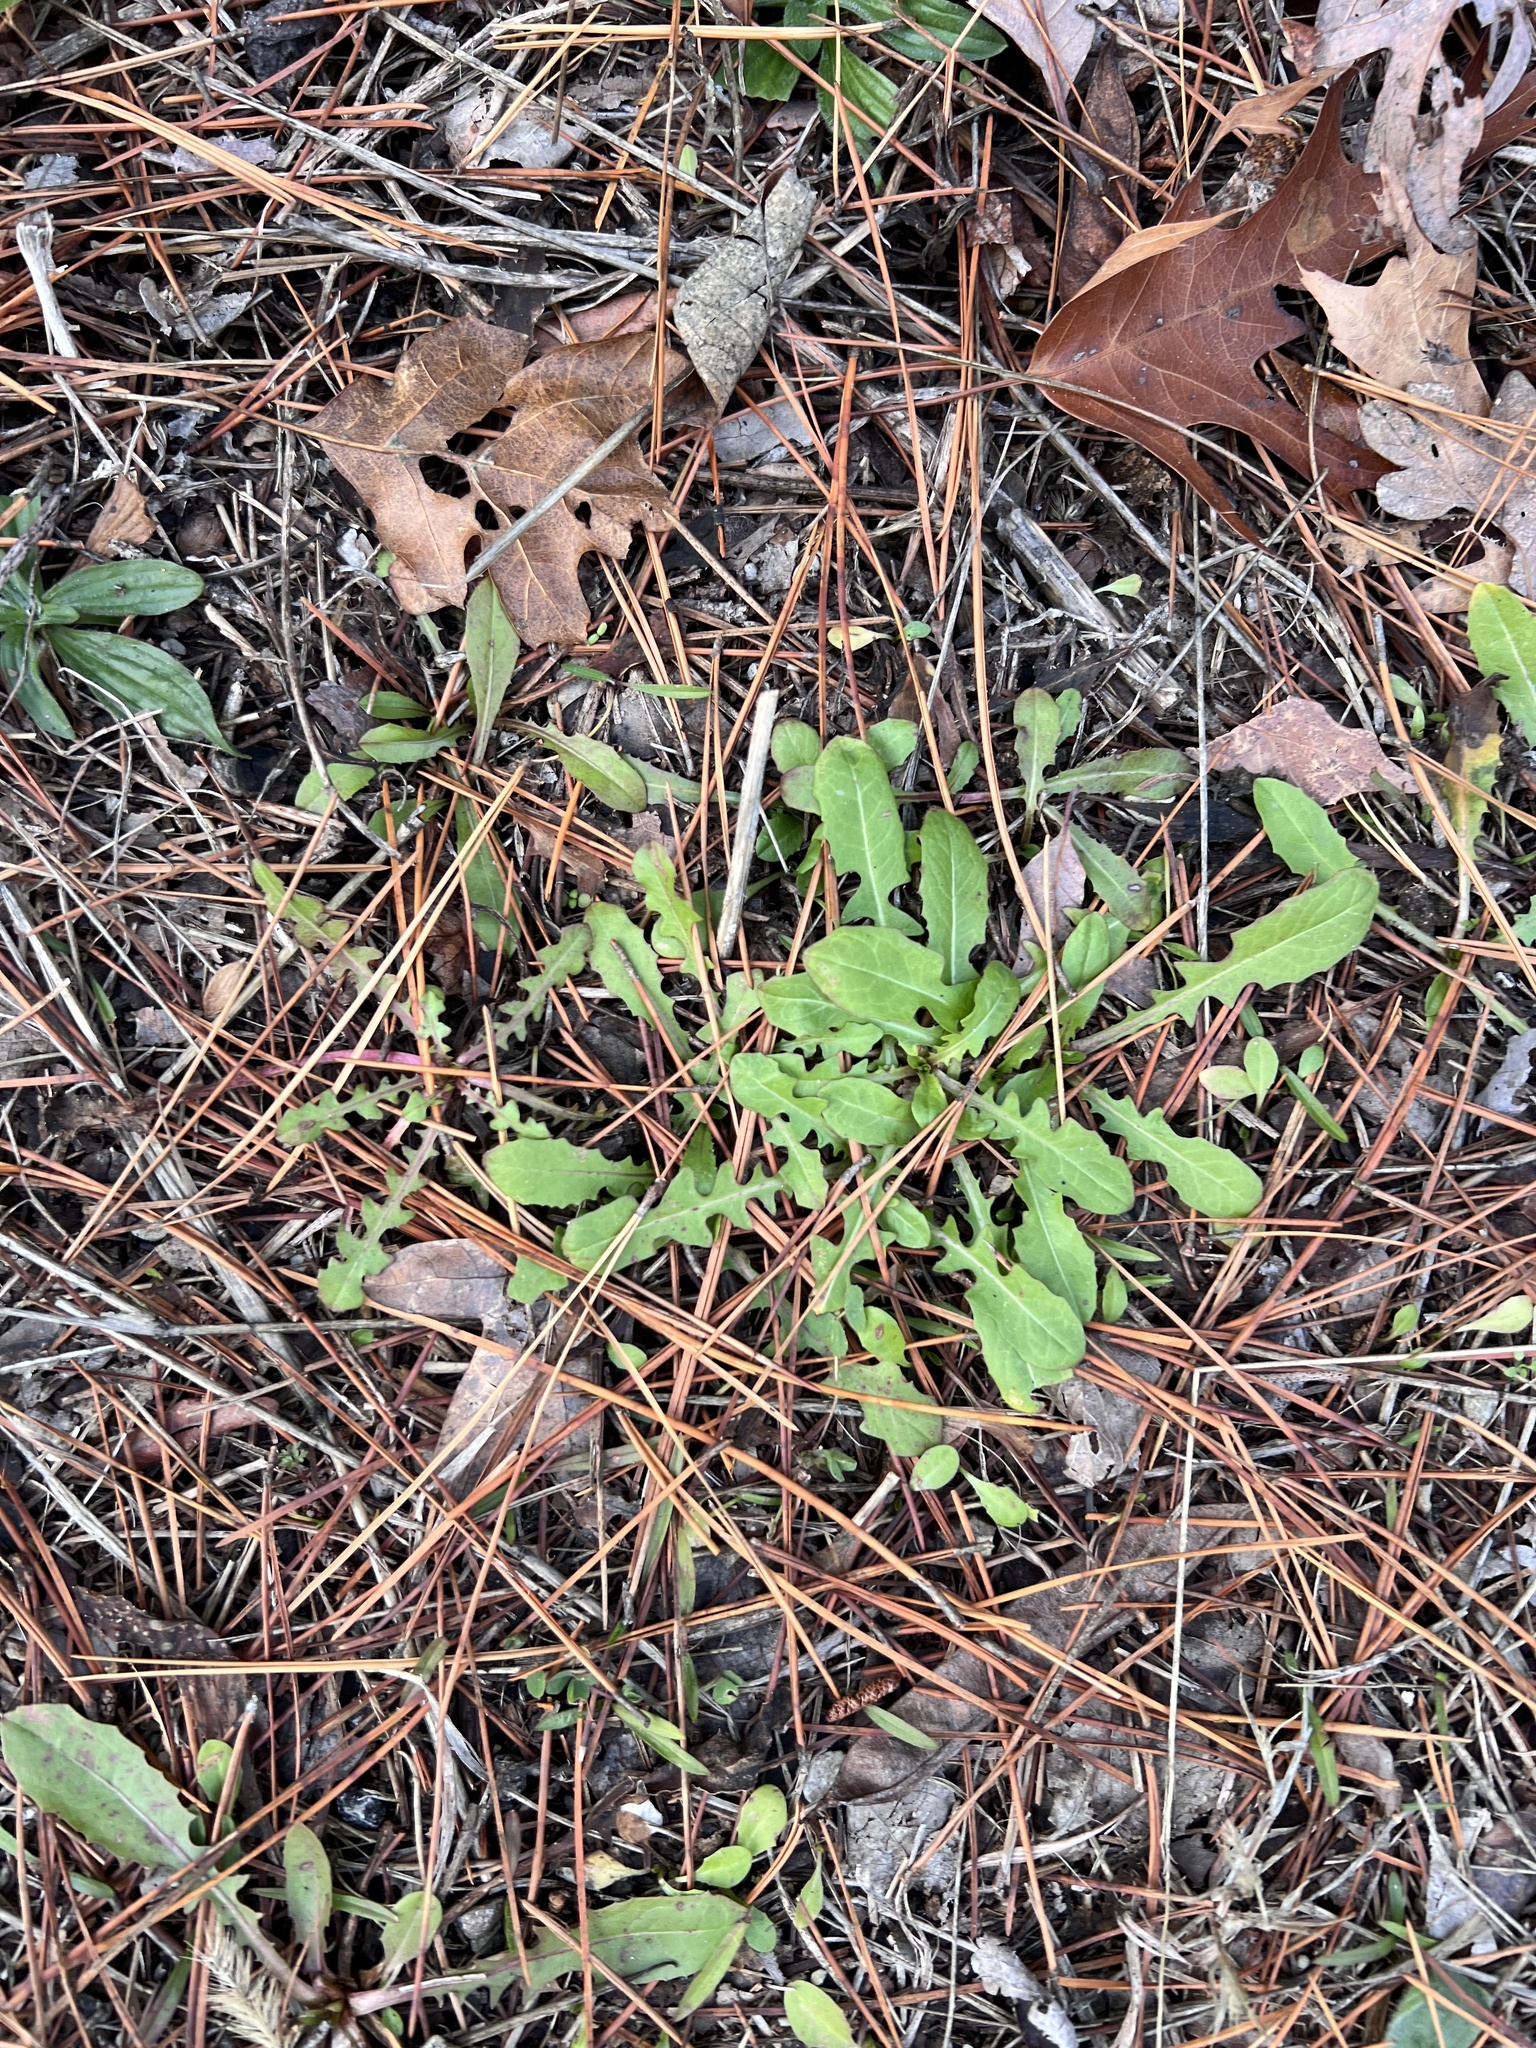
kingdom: Plantae
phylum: Tracheophyta
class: Magnoliopsida
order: Asterales
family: Asteraceae
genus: Taraxacum
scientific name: Taraxacum officinale
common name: Common dandelion
